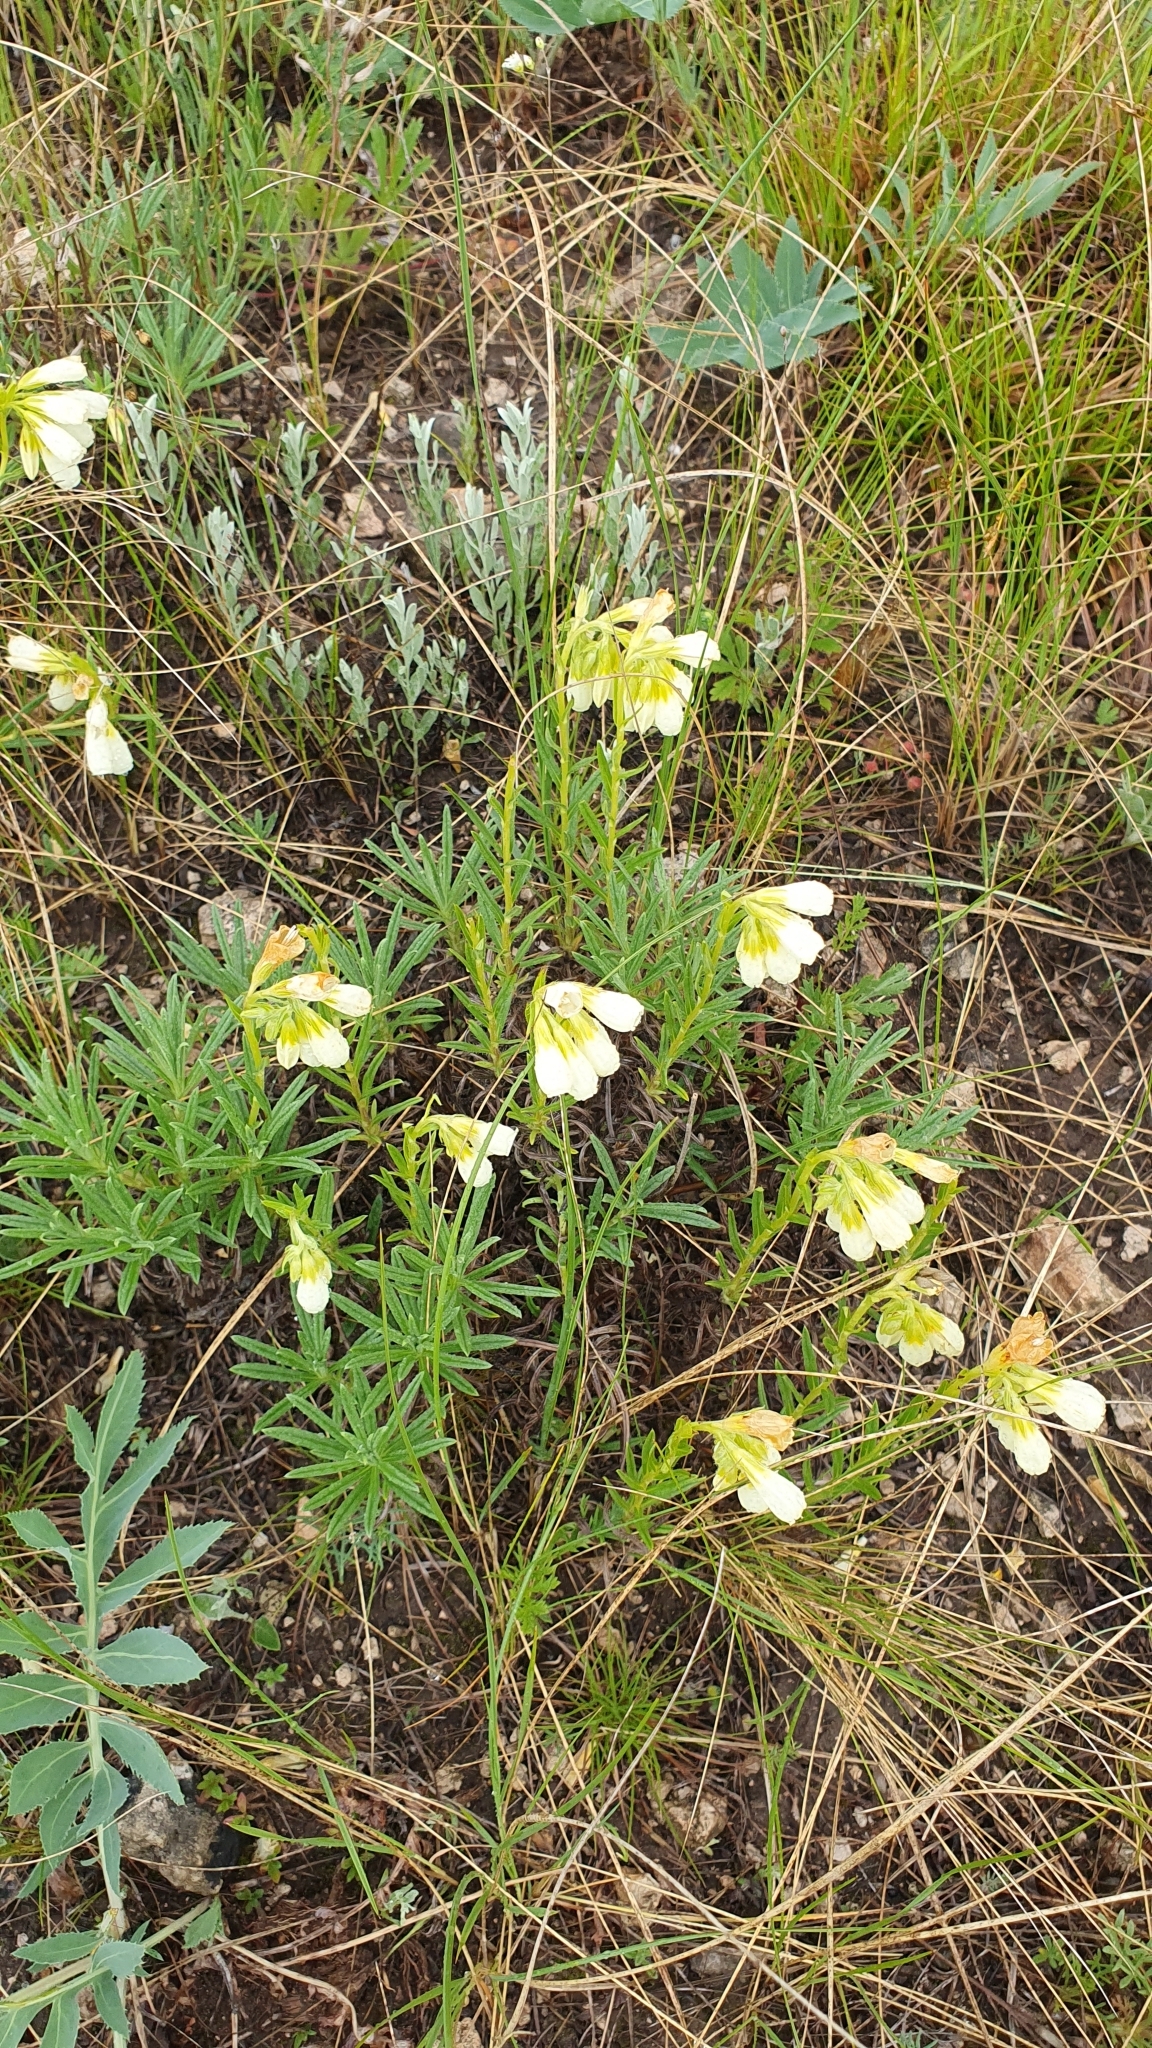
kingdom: Plantae
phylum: Tracheophyta
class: Magnoliopsida
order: Boraginales
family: Boraginaceae
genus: Onosma
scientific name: Onosma simplicissima
